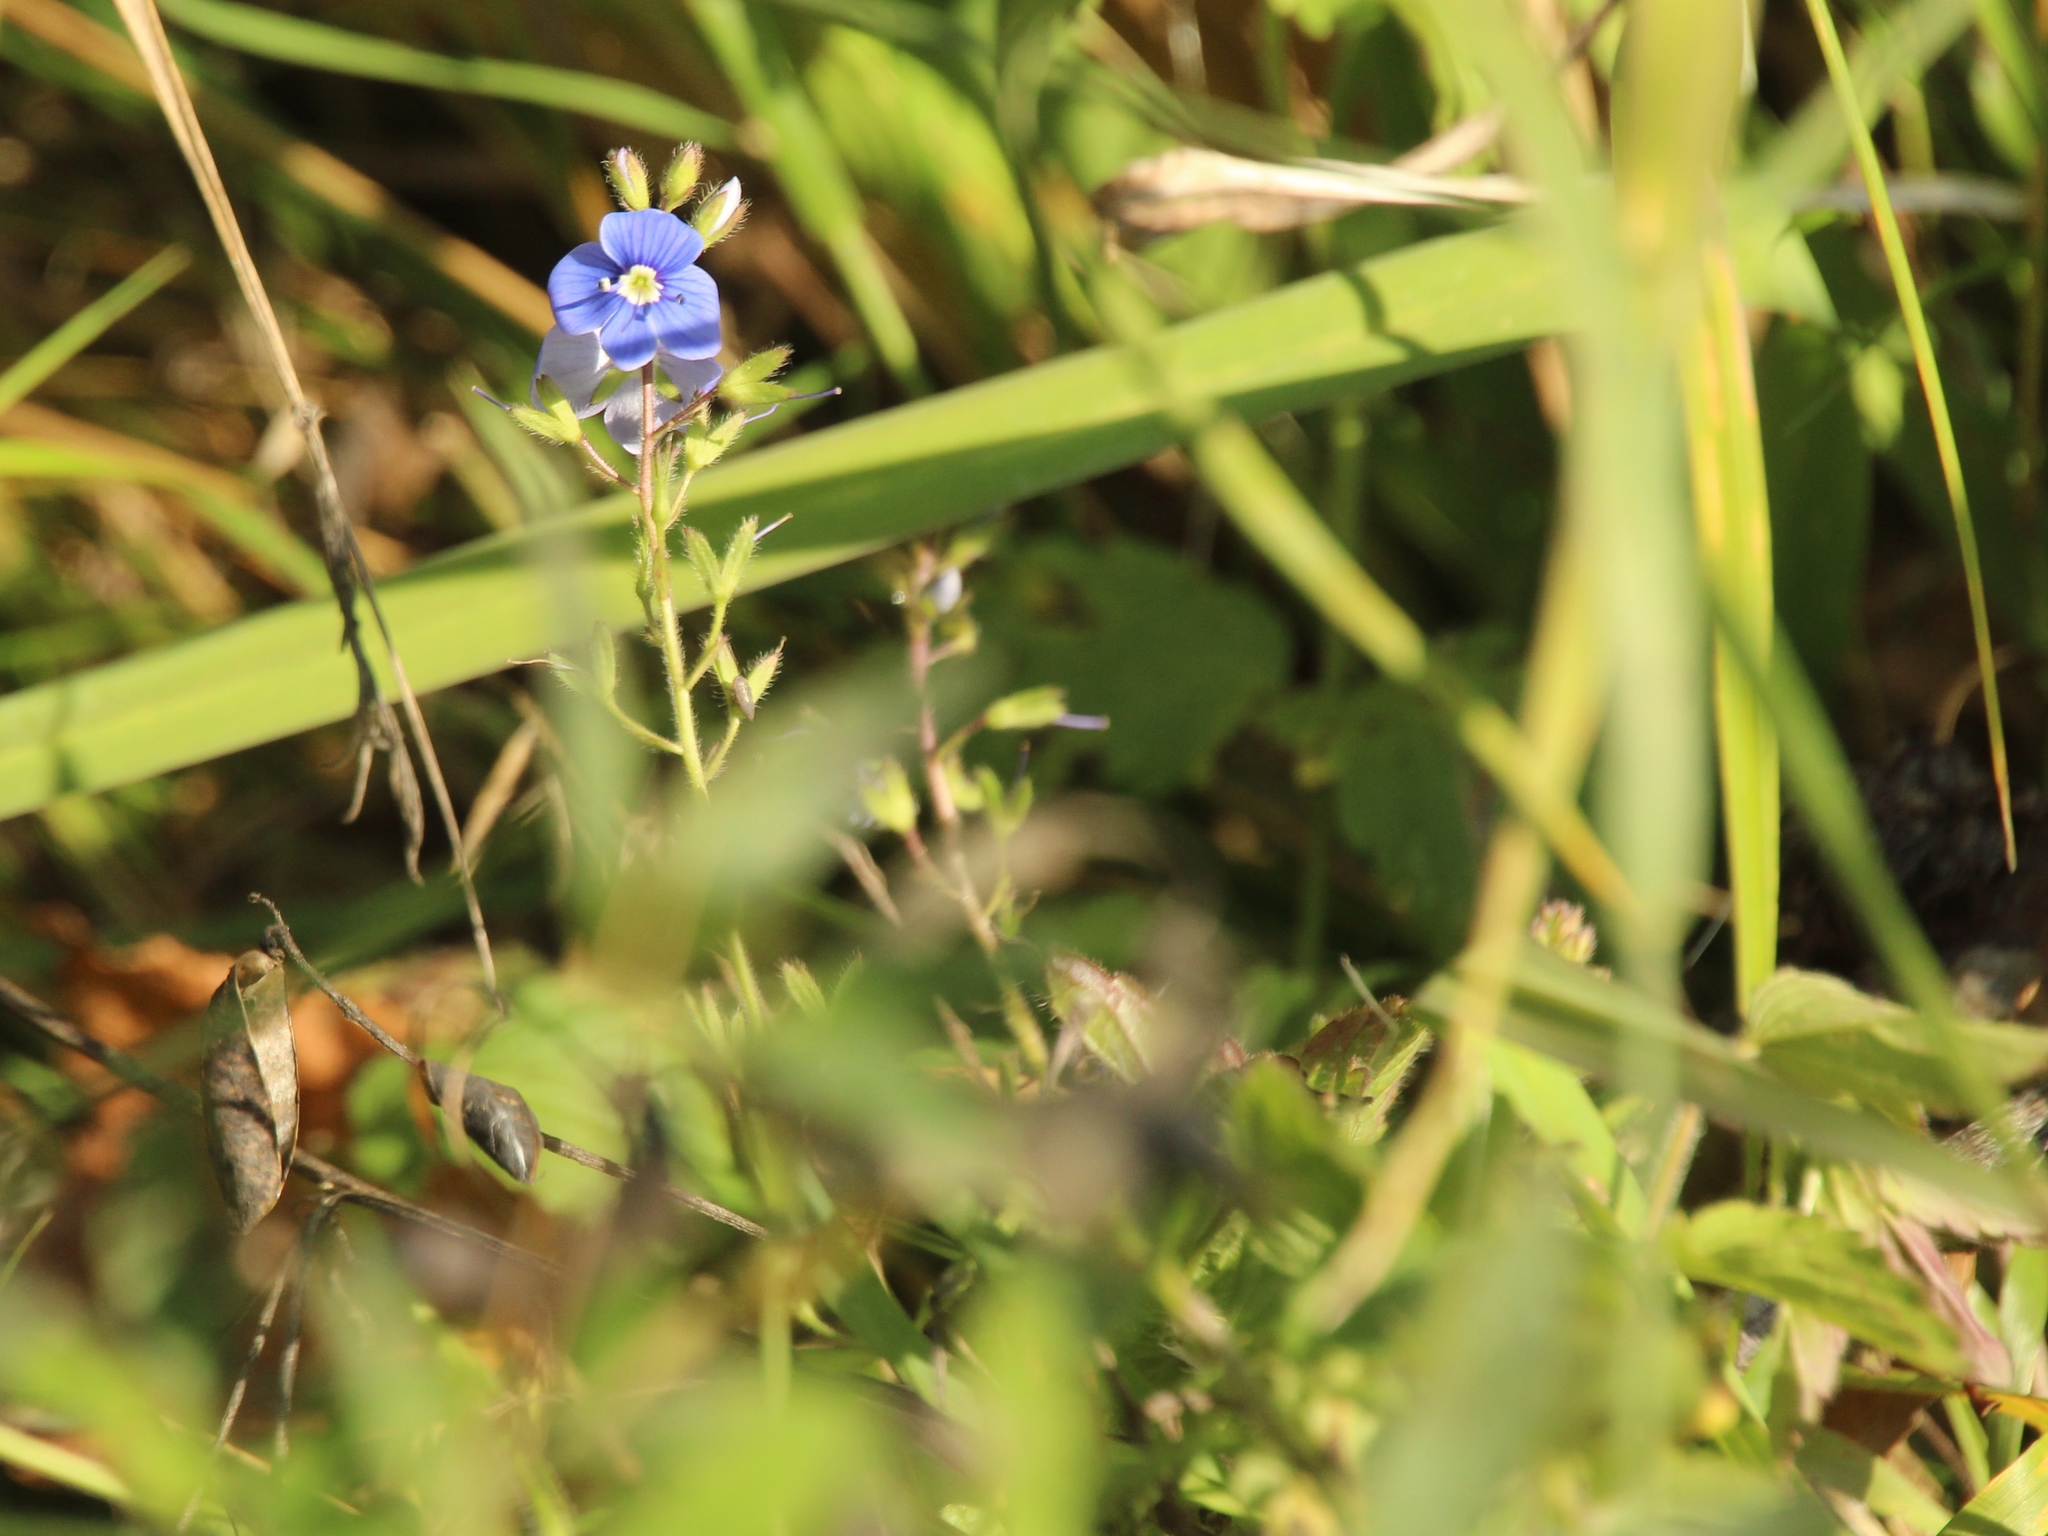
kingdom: Plantae
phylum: Tracheophyta
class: Magnoliopsida
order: Lamiales
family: Plantaginaceae
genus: Veronica
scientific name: Veronica chamaedrys
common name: Germander speedwell
